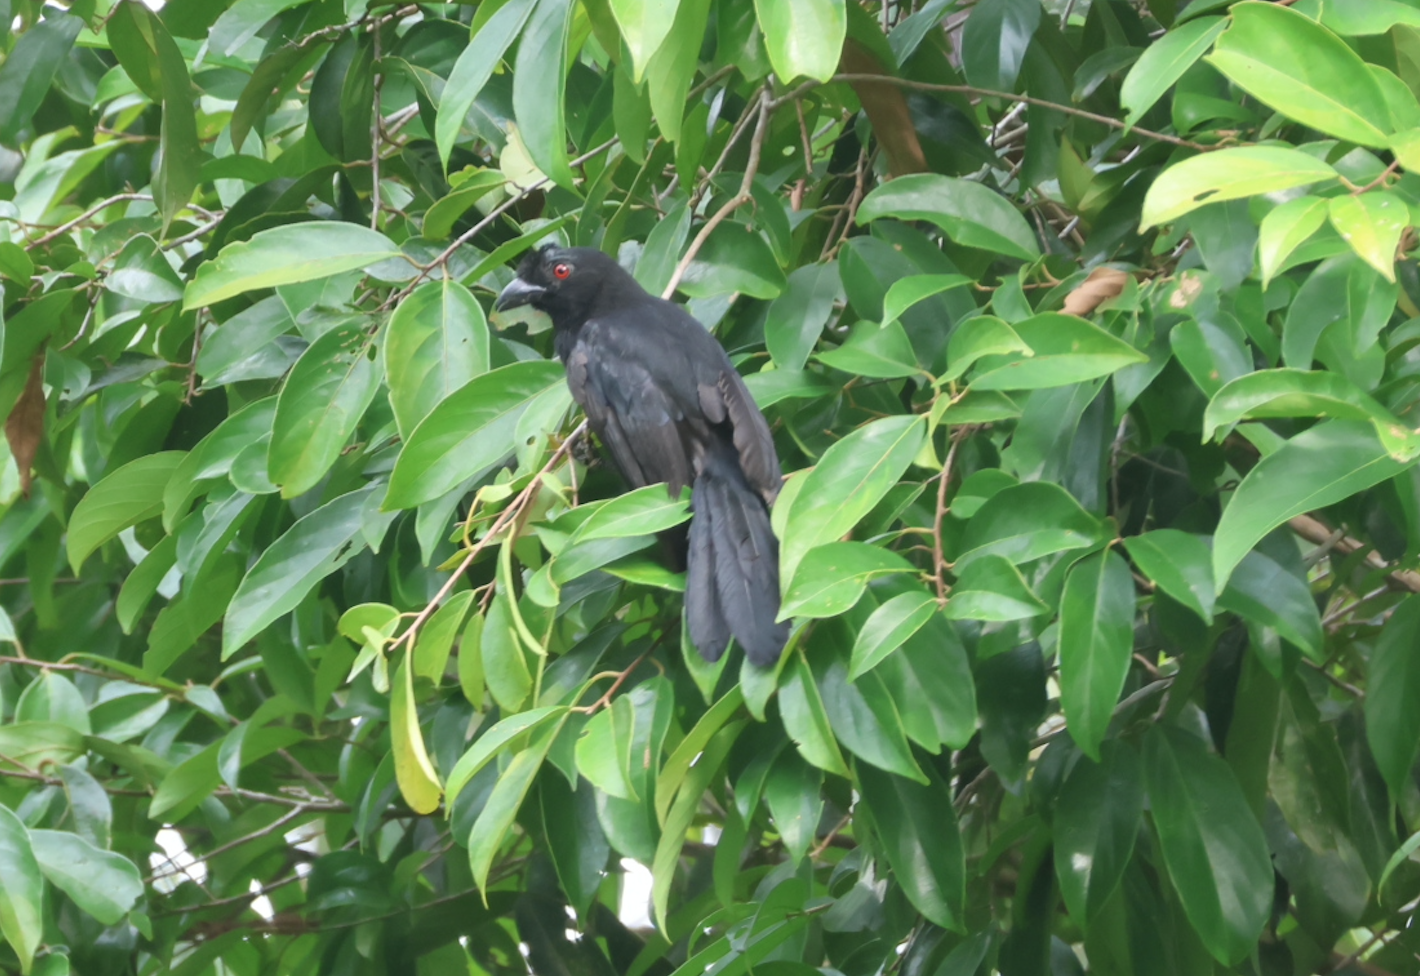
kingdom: Animalia
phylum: Chordata
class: Aves
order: Passeriformes
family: Corvidae
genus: Platysmurus
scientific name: Platysmurus leucopterus
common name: Black magpie
